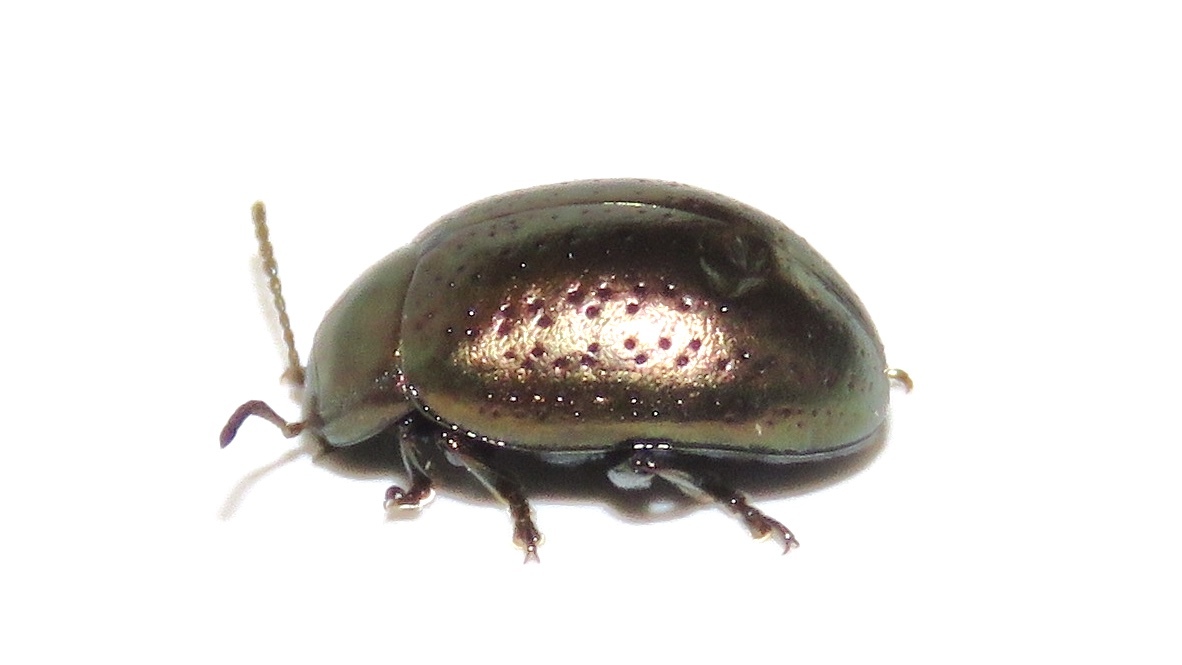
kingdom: Animalia
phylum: Arthropoda
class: Insecta
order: Coleoptera
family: Chrysomelidae
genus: Chrysolina
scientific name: Chrysolina hyperici
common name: St. johnswort beetle
